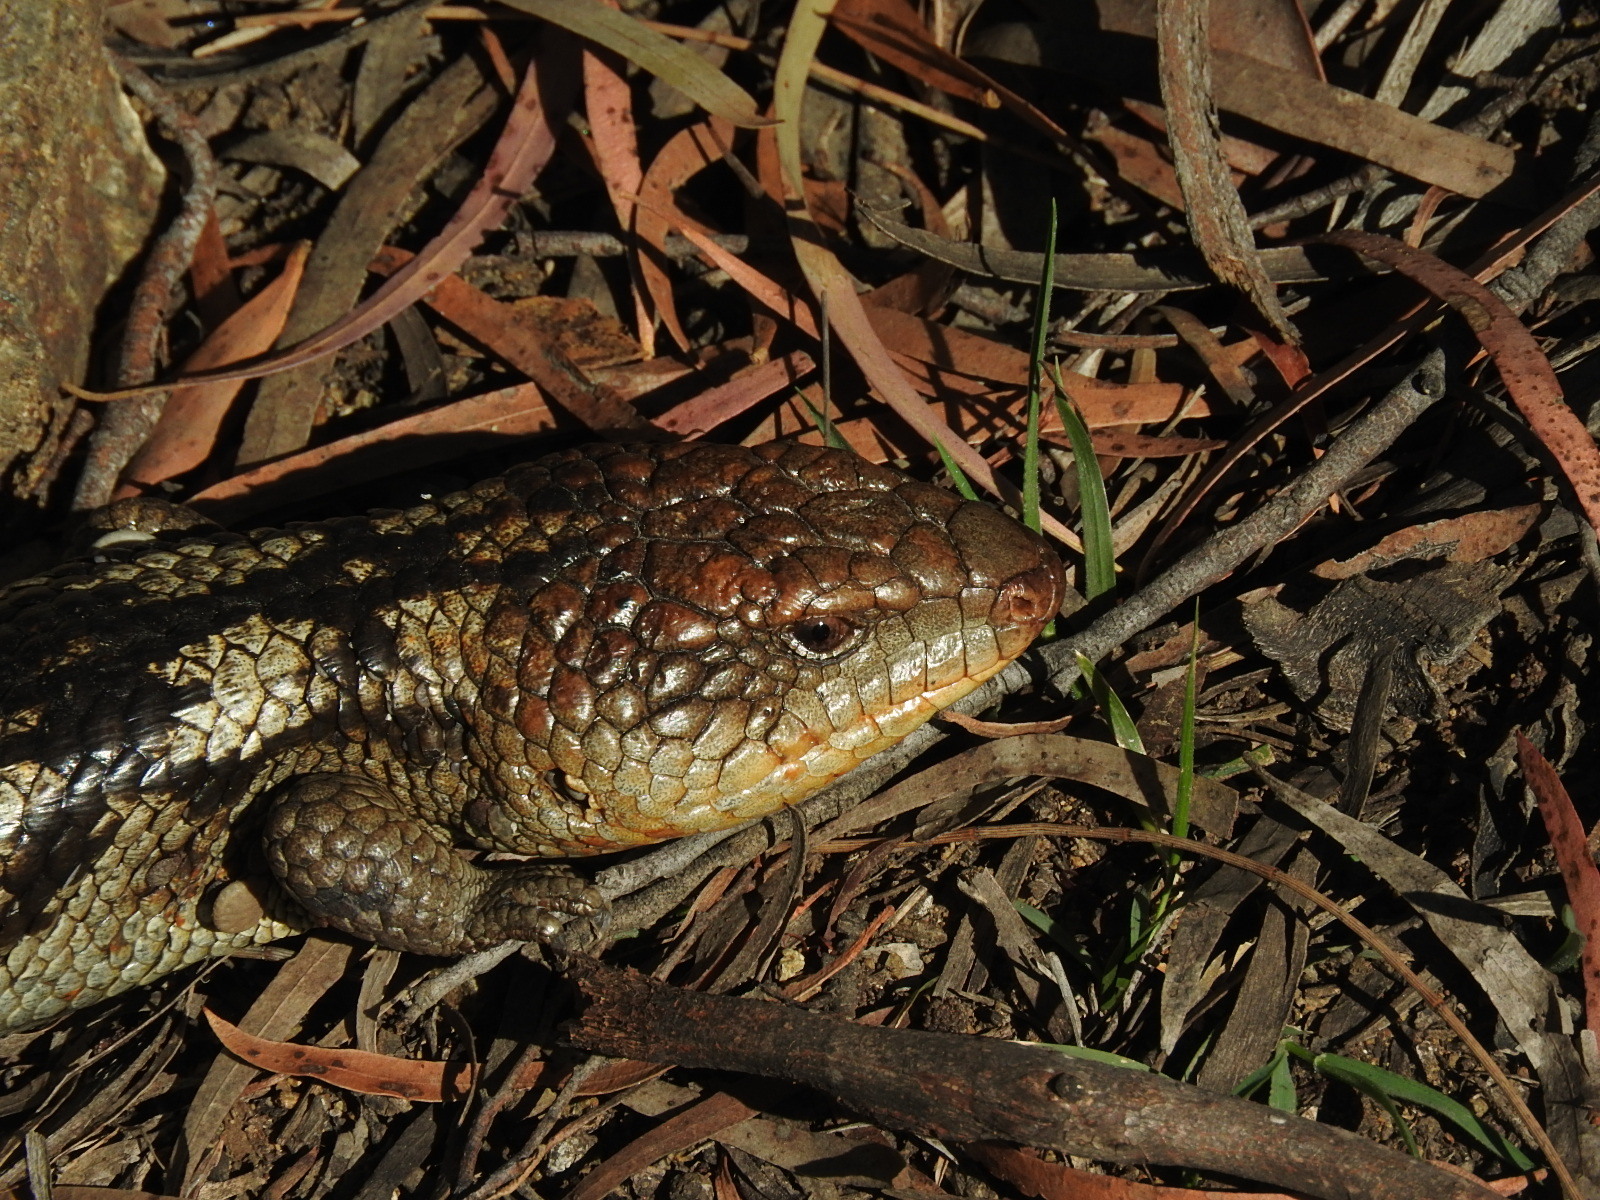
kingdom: Animalia
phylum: Chordata
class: Squamata
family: Scincidae
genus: Tiliqua
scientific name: Tiliqua nigrolutea
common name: Blotched blue-tongued lizard
